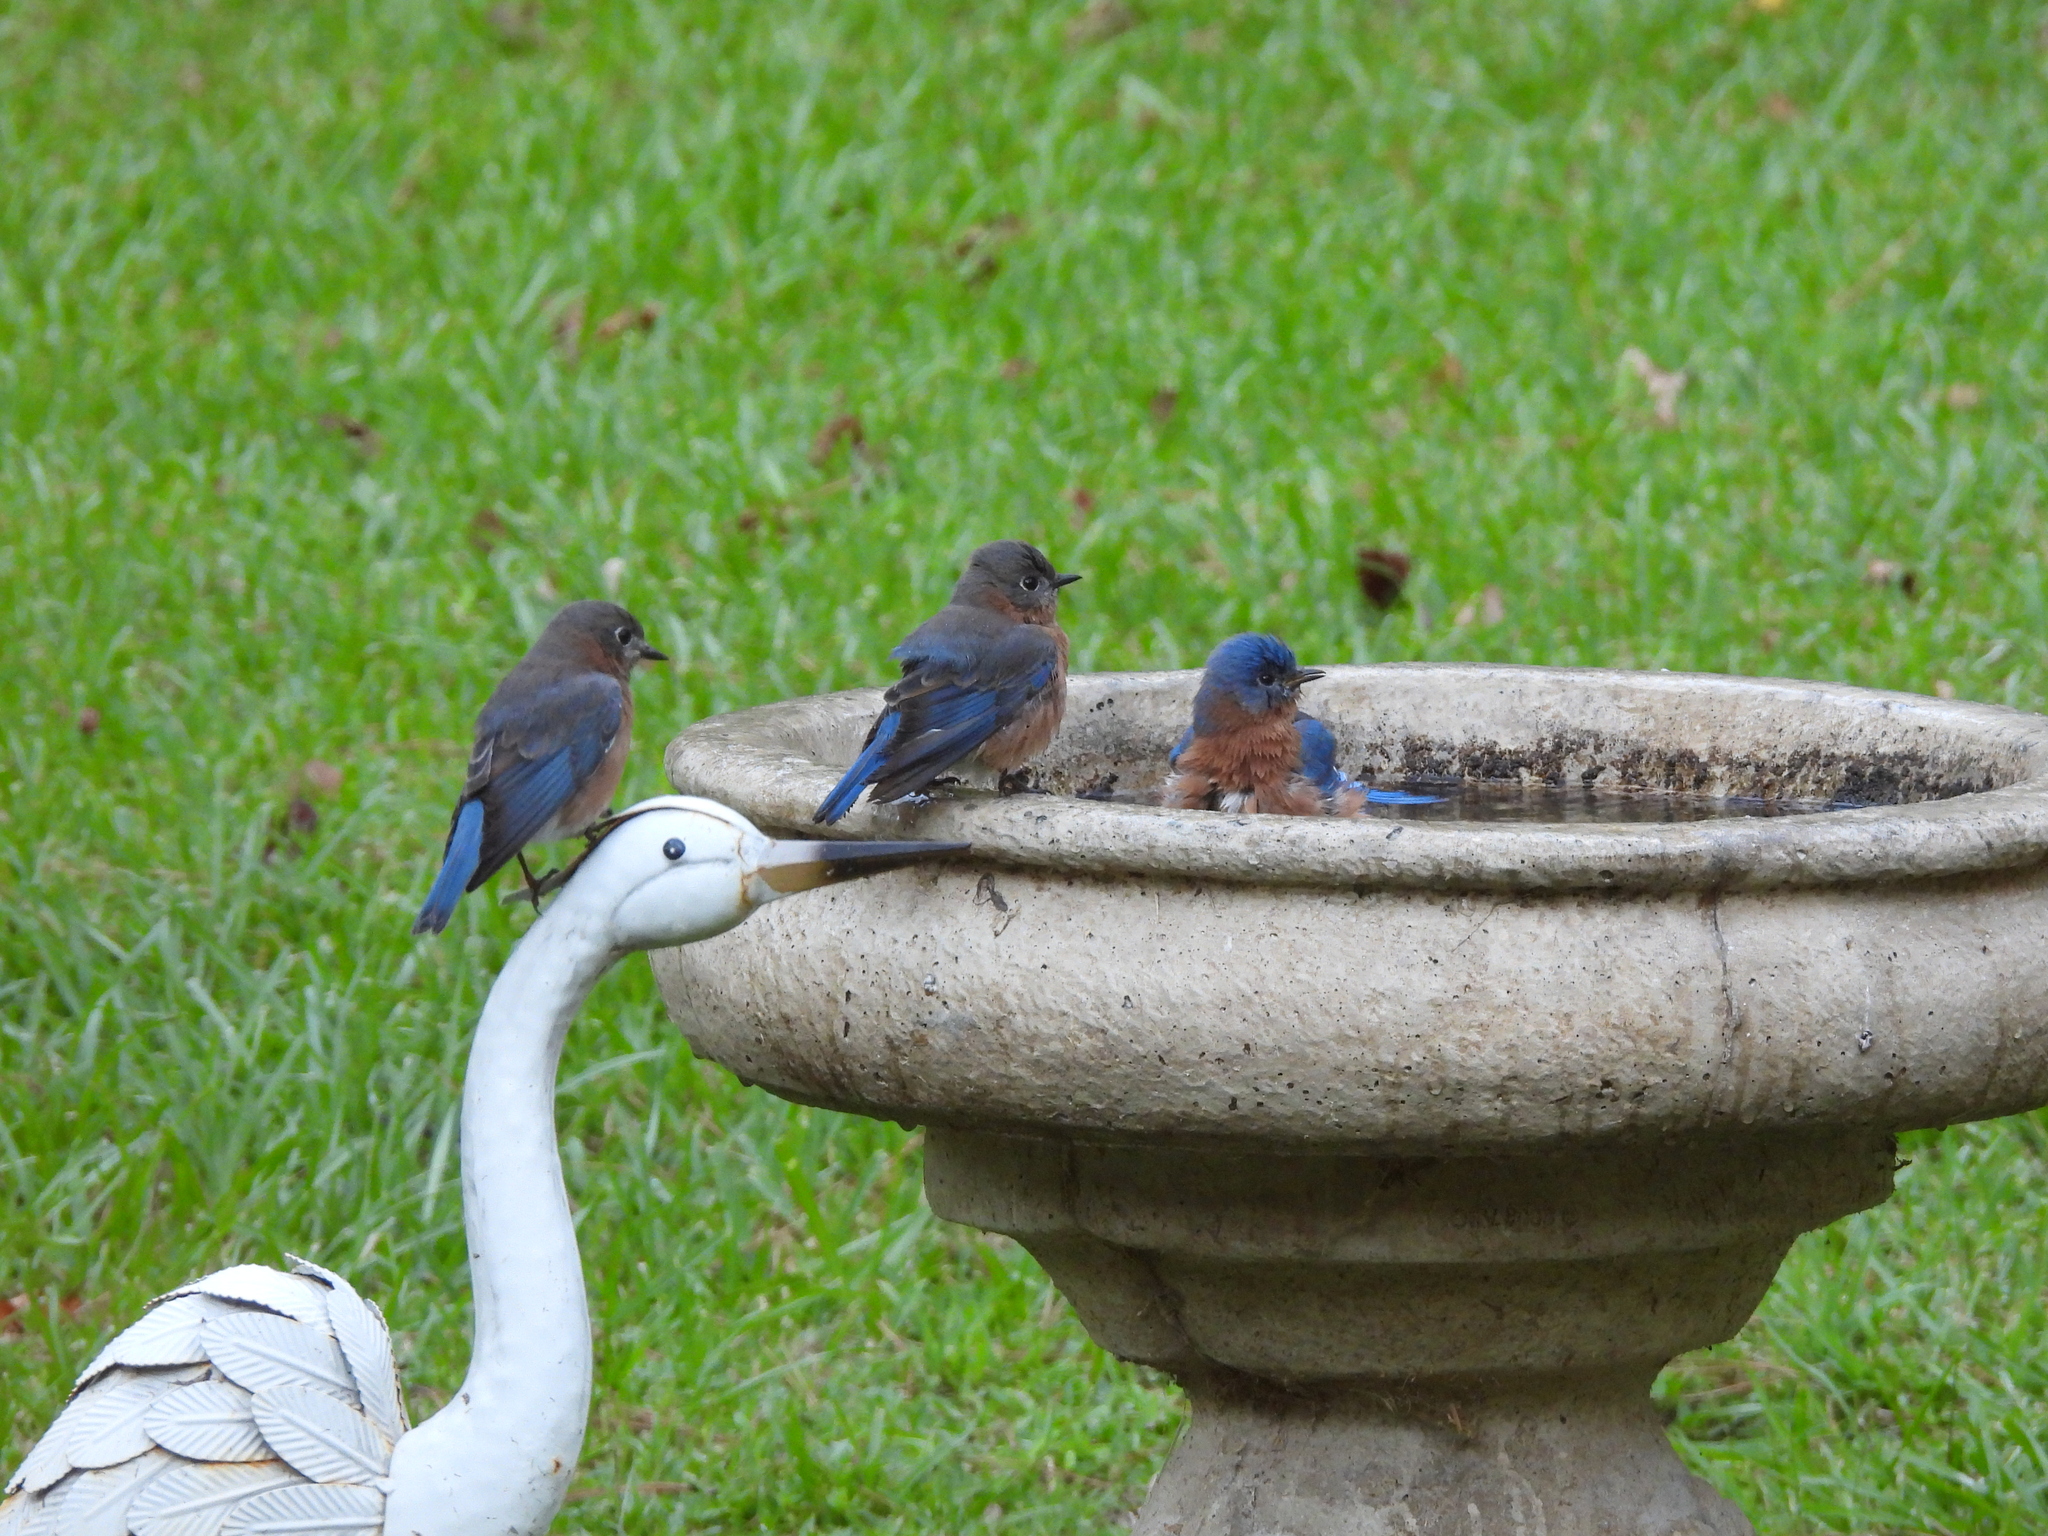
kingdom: Animalia
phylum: Chordata
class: Aves
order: Passeriformes
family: Turdidae
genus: Sialia
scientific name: Sialia sialis
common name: Eastern bluebird
